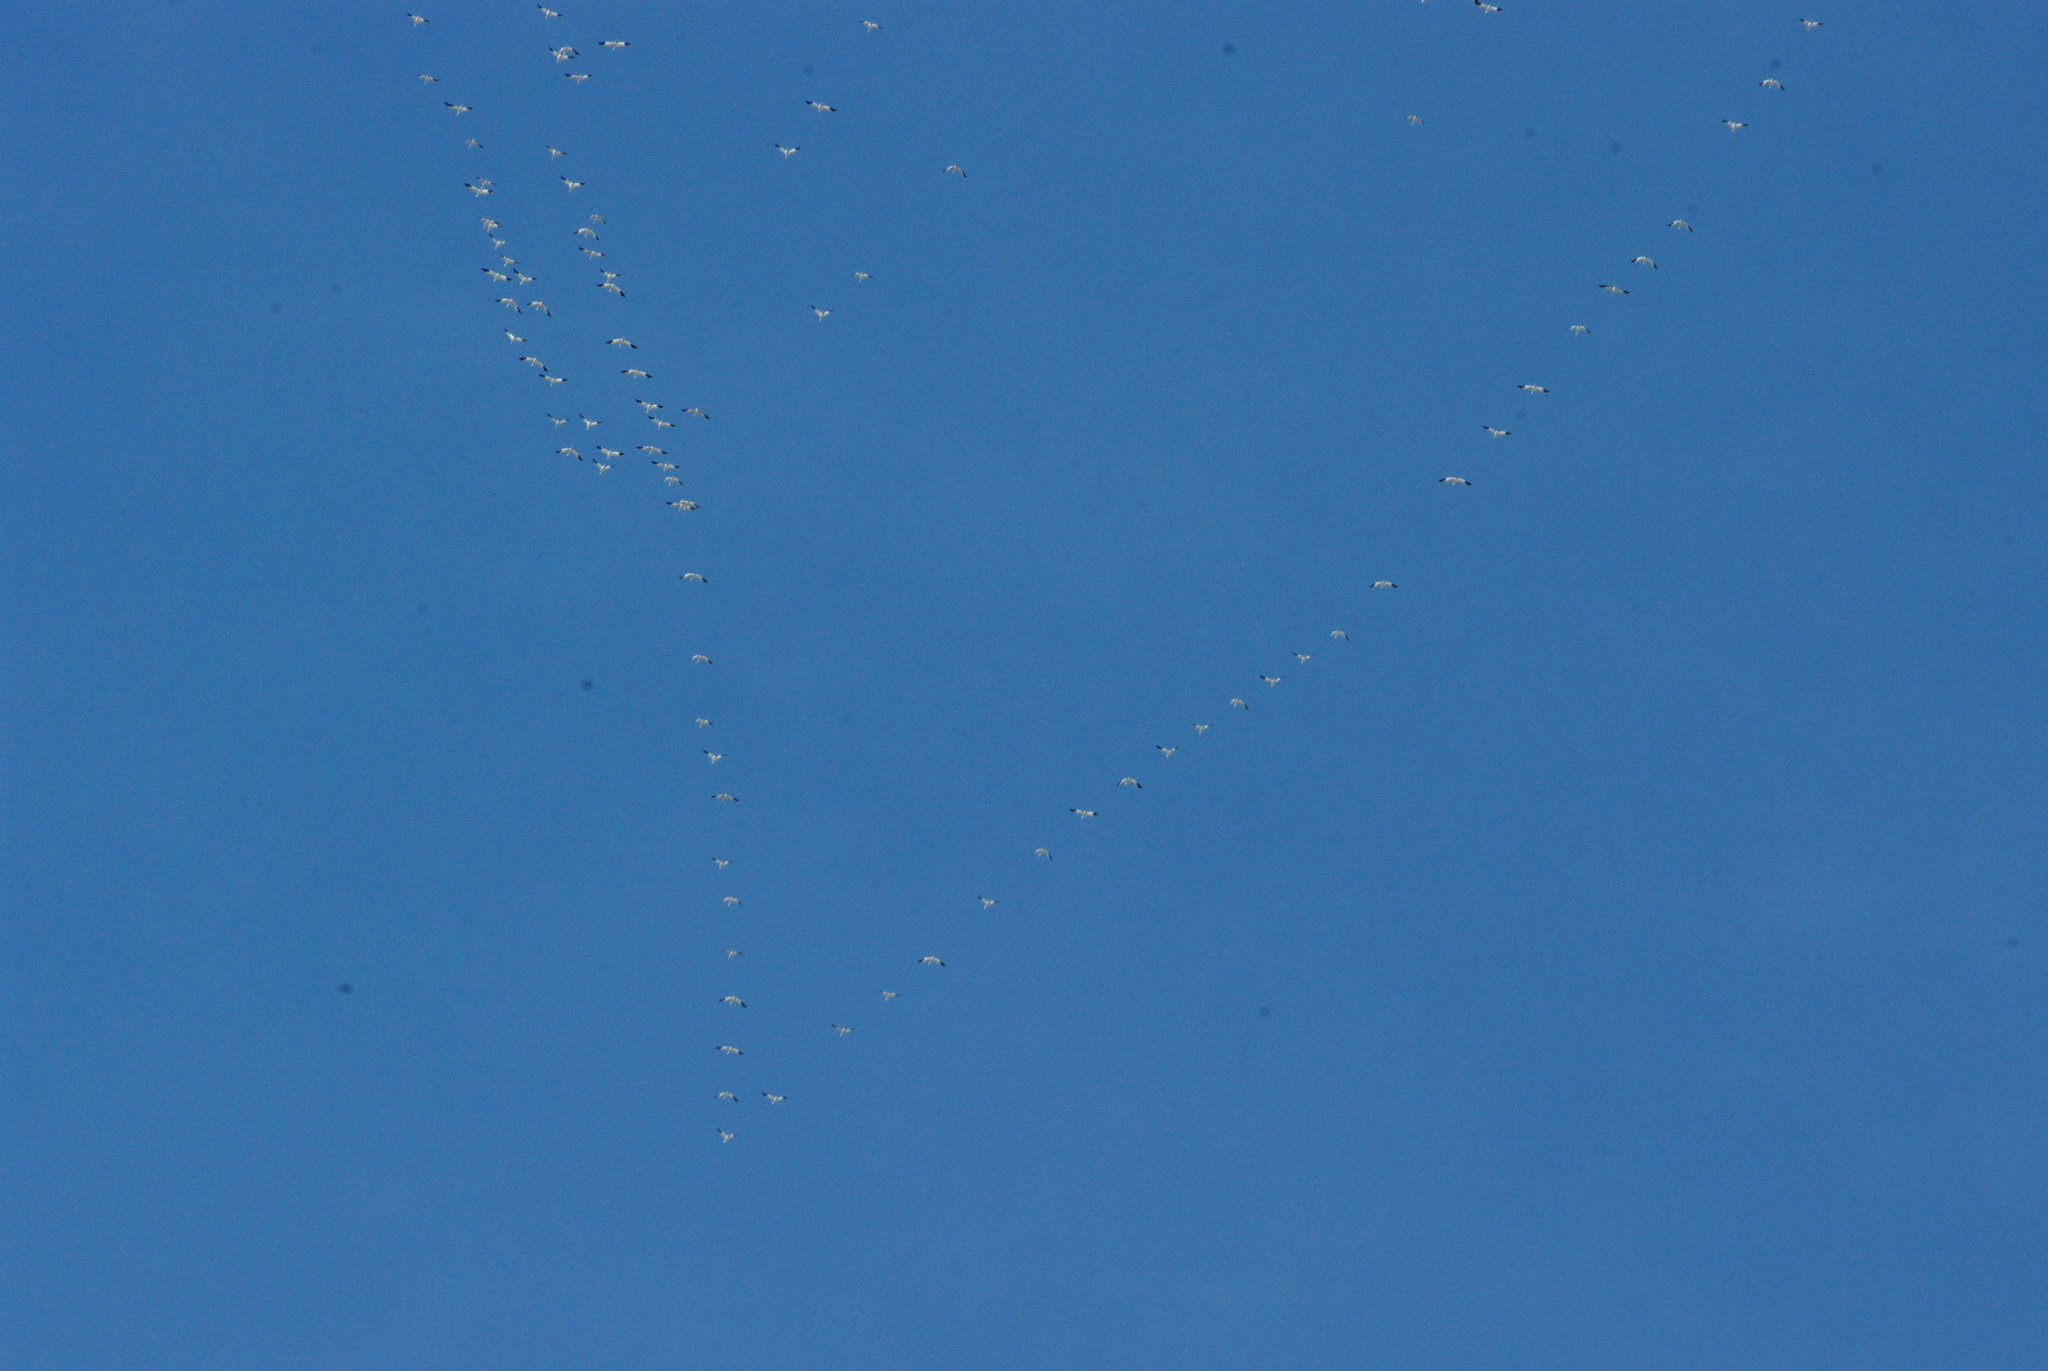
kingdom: Animalia
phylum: Chordata
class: Aves
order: Anseriformes
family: Anatidae
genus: Anser
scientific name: Anser caerulescens
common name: Snow goose
